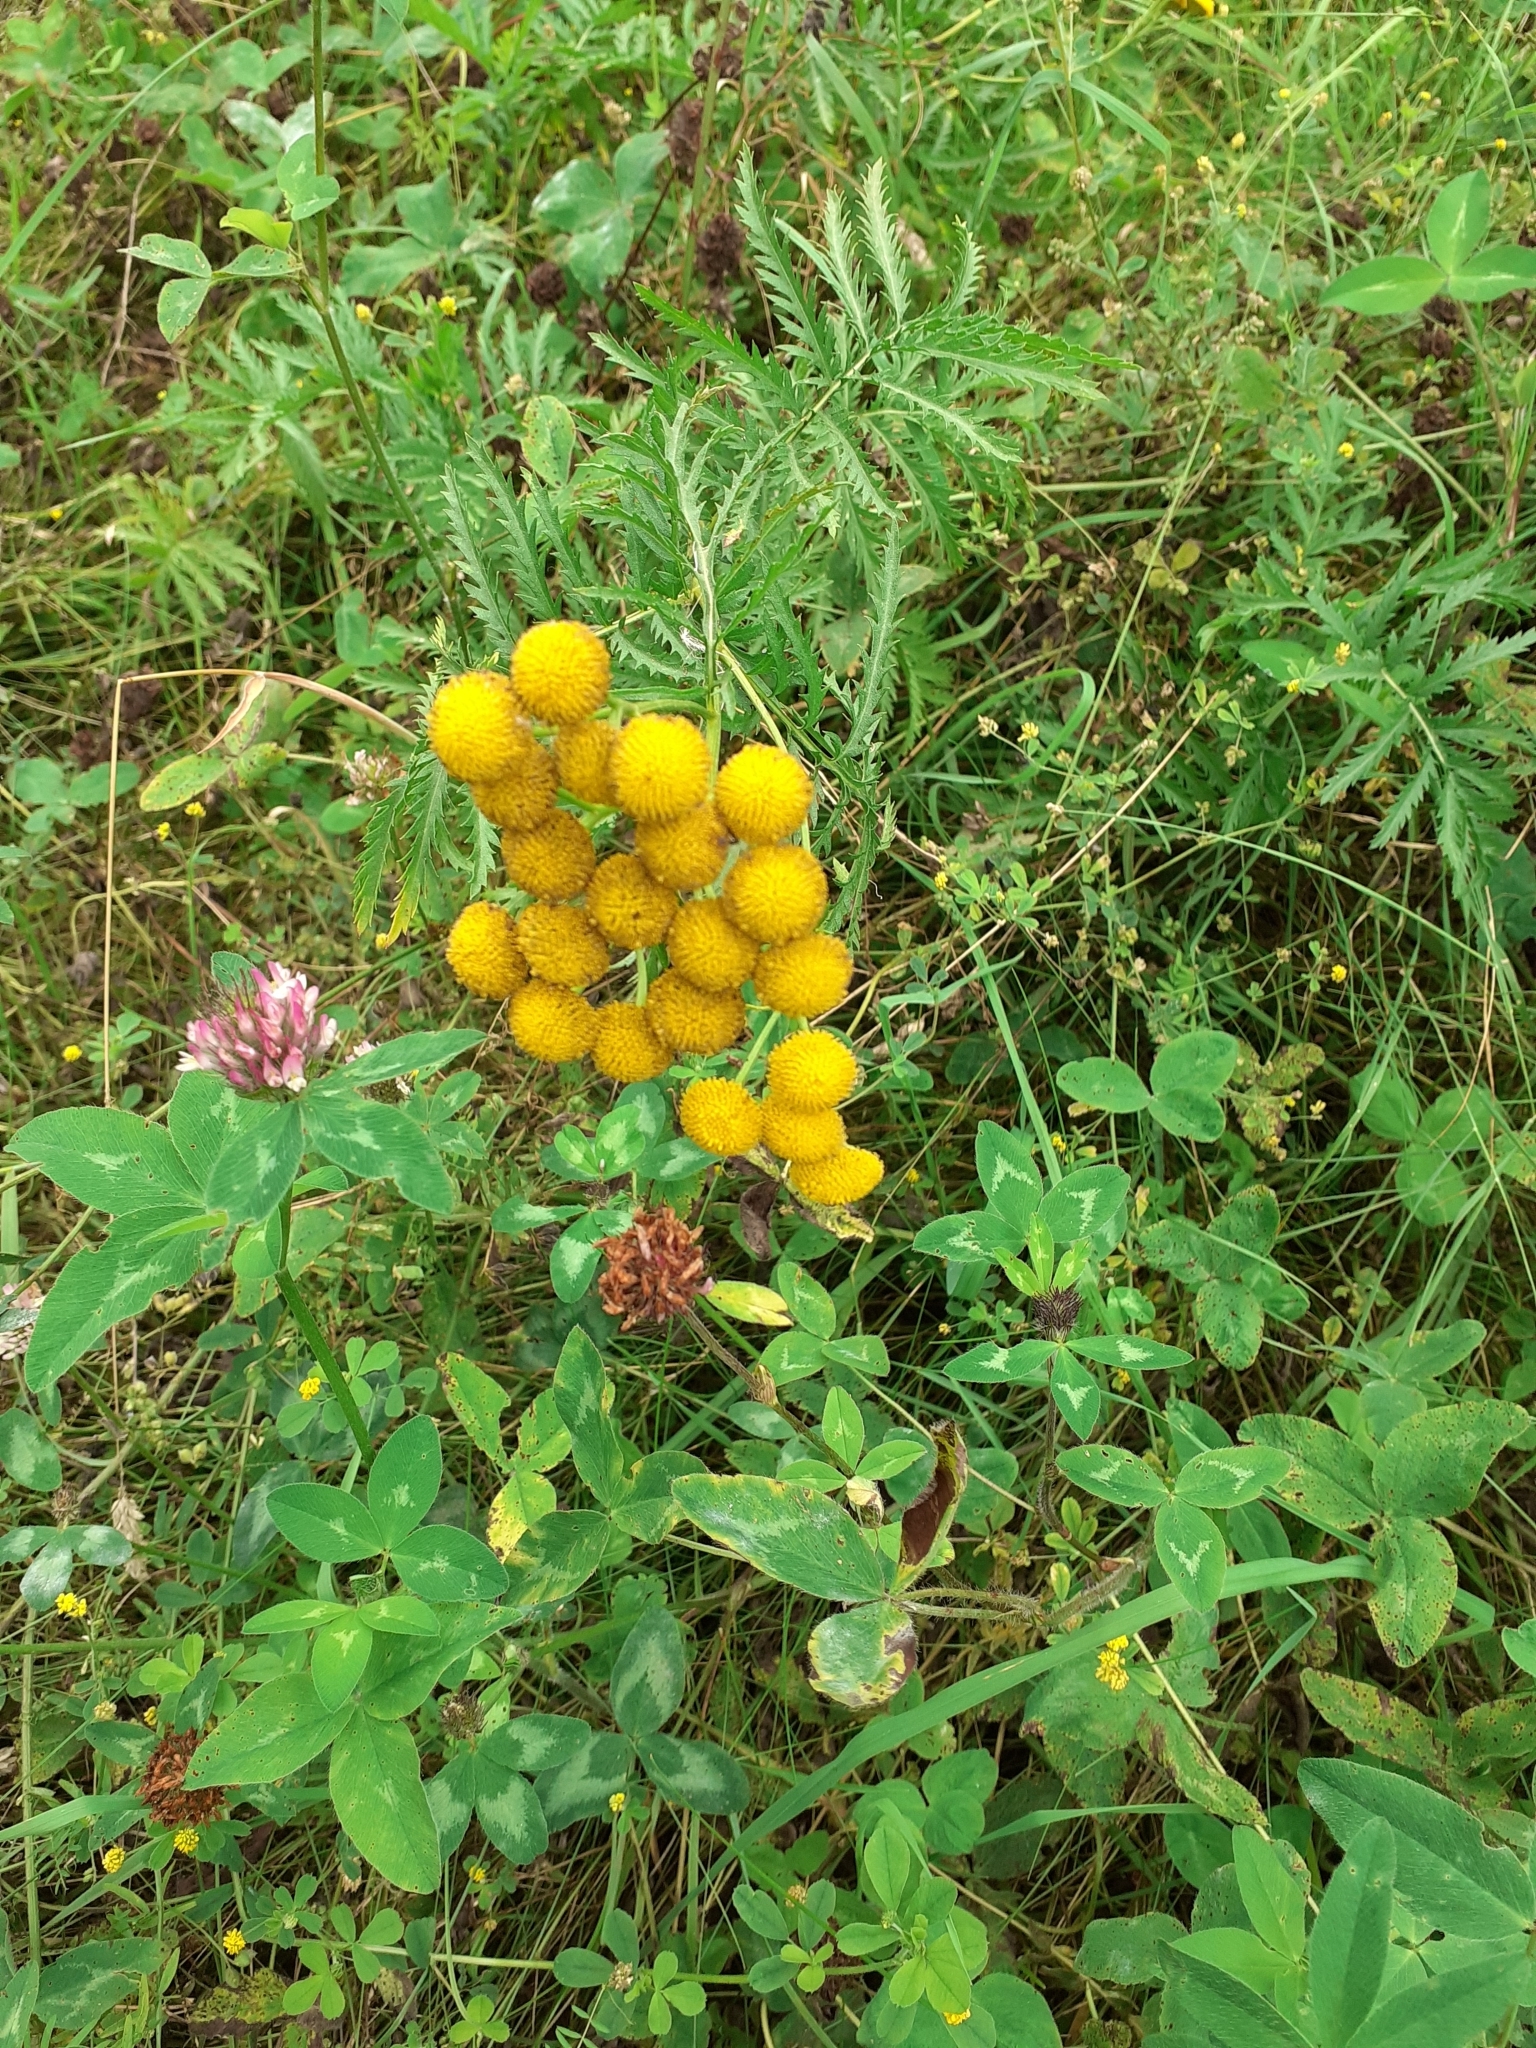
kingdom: Plantae
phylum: Tracheophyta
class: Magnoliopsida
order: Asterales
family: Asteraceae
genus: Tanacetum
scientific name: Tanacetum vulgare
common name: Common tansy
